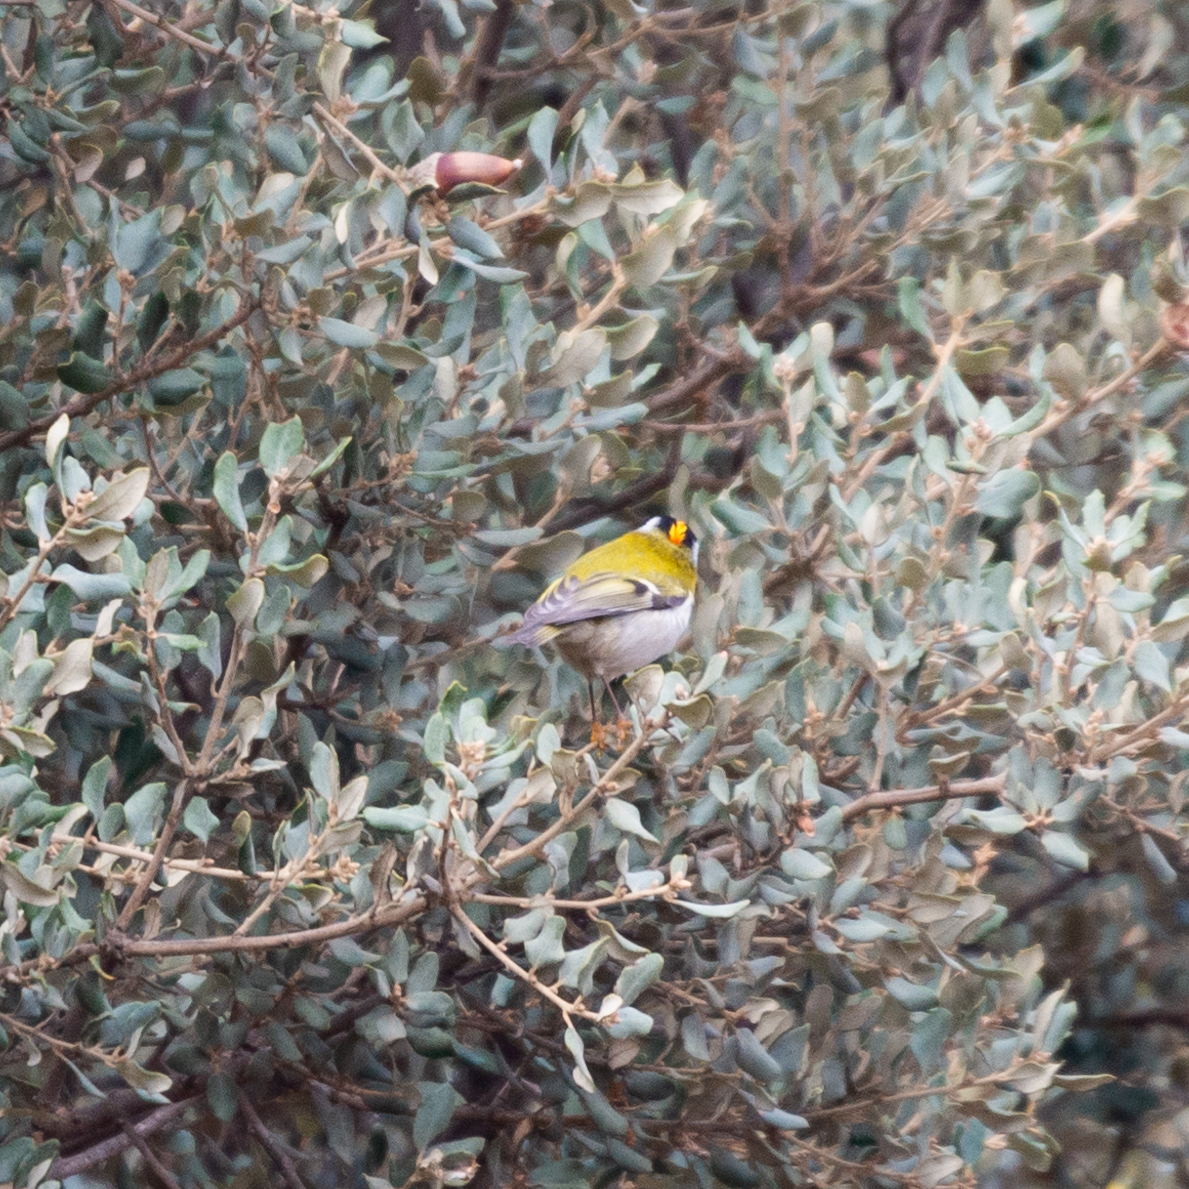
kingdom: Animalia
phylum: Chordata
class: Aves
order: Passeriformes
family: Regulidae
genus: Regulus
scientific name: Regulus ignicapilla
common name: Firecrest
